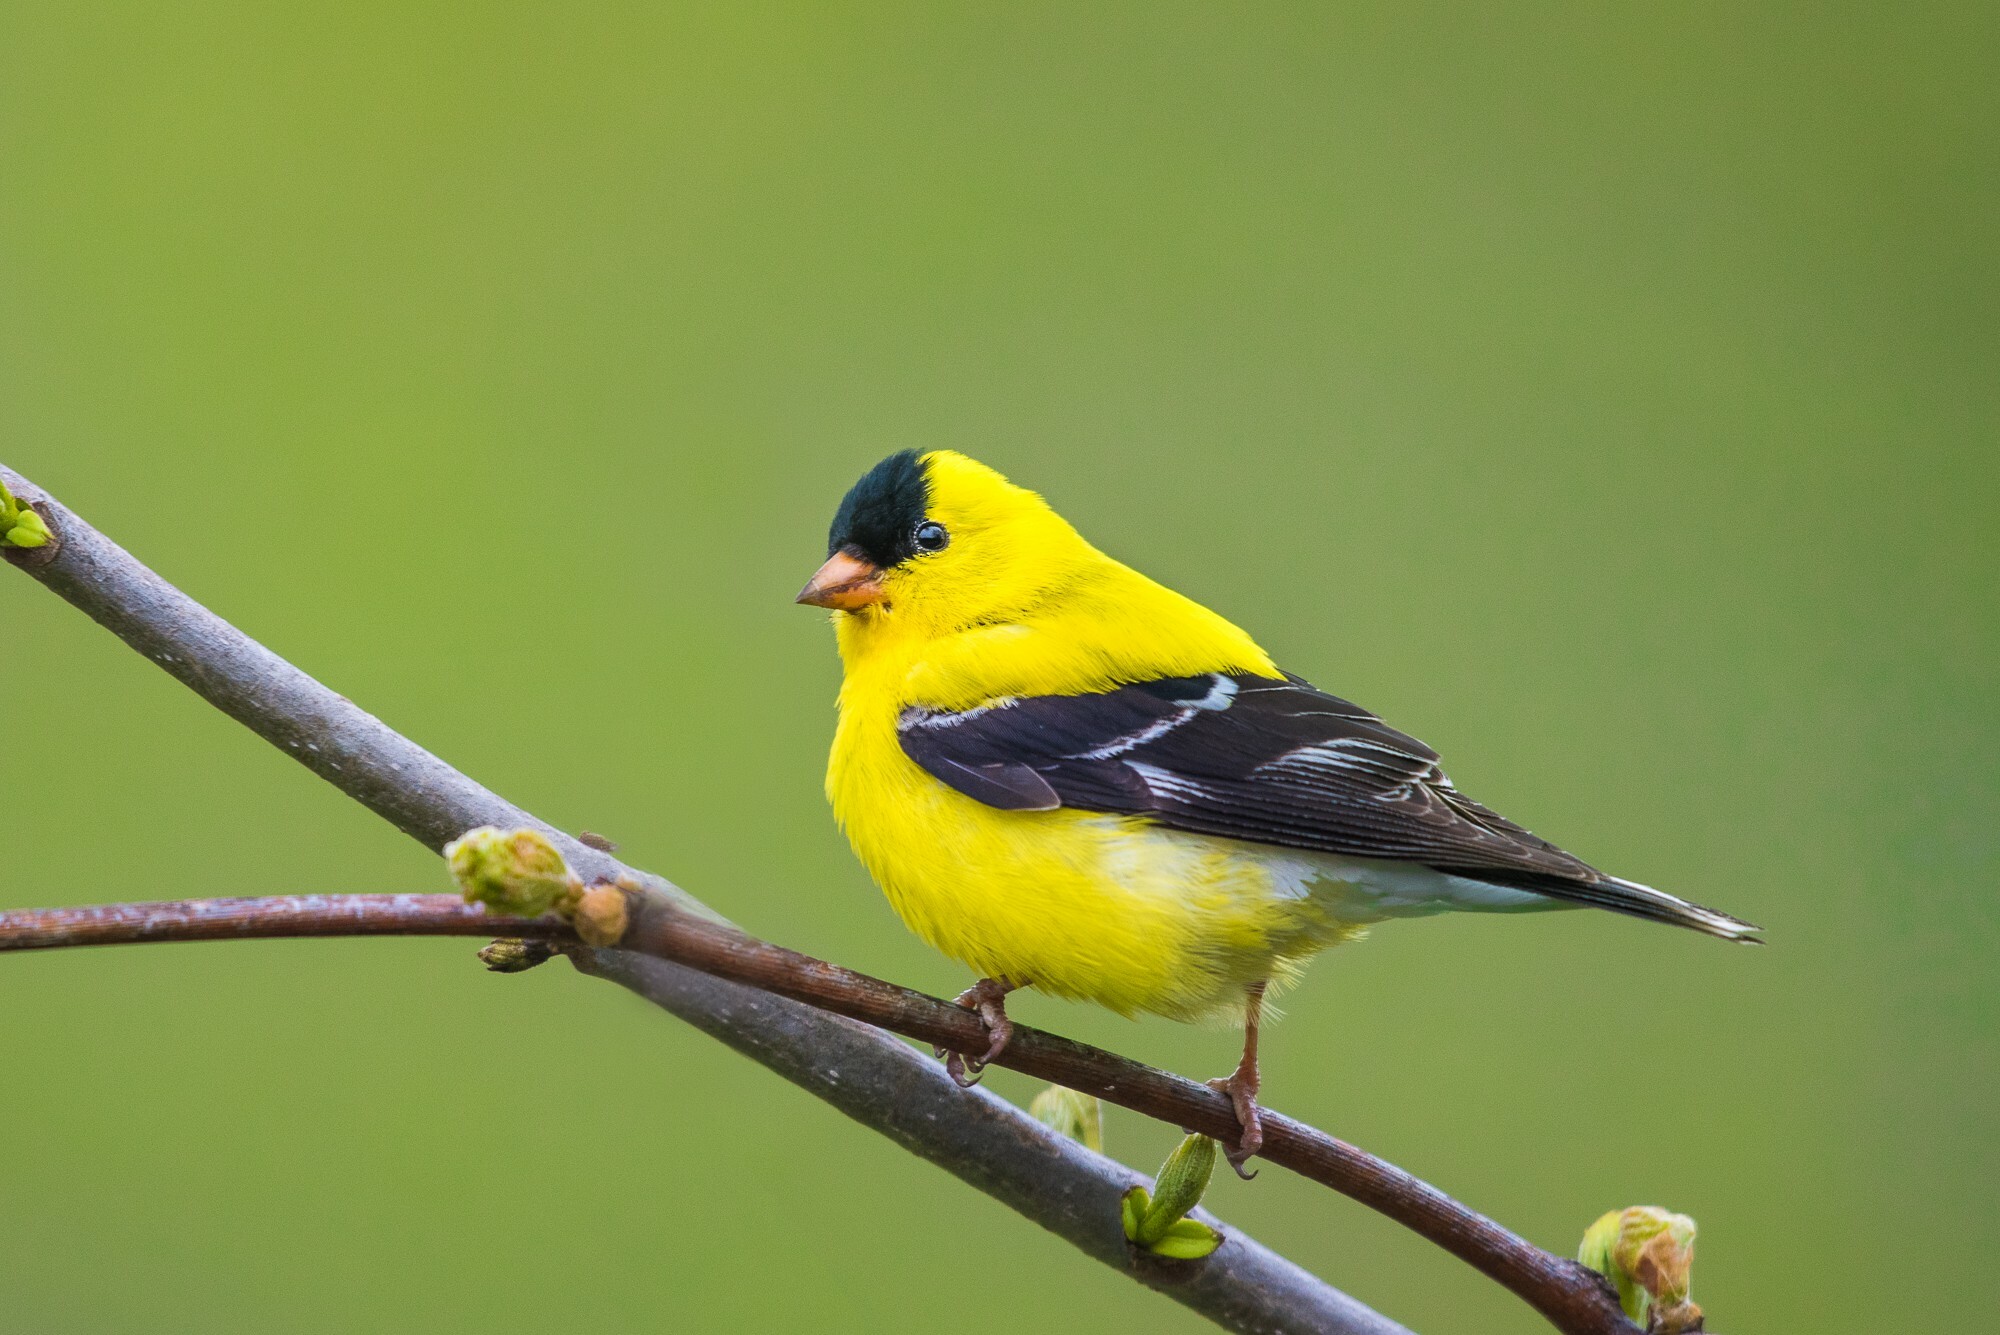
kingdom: Animalia
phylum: Chordata
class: Aves
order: Passeriformes
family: Fringillidae
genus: Spinus
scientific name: Spinus tristis
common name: American goldfinch
